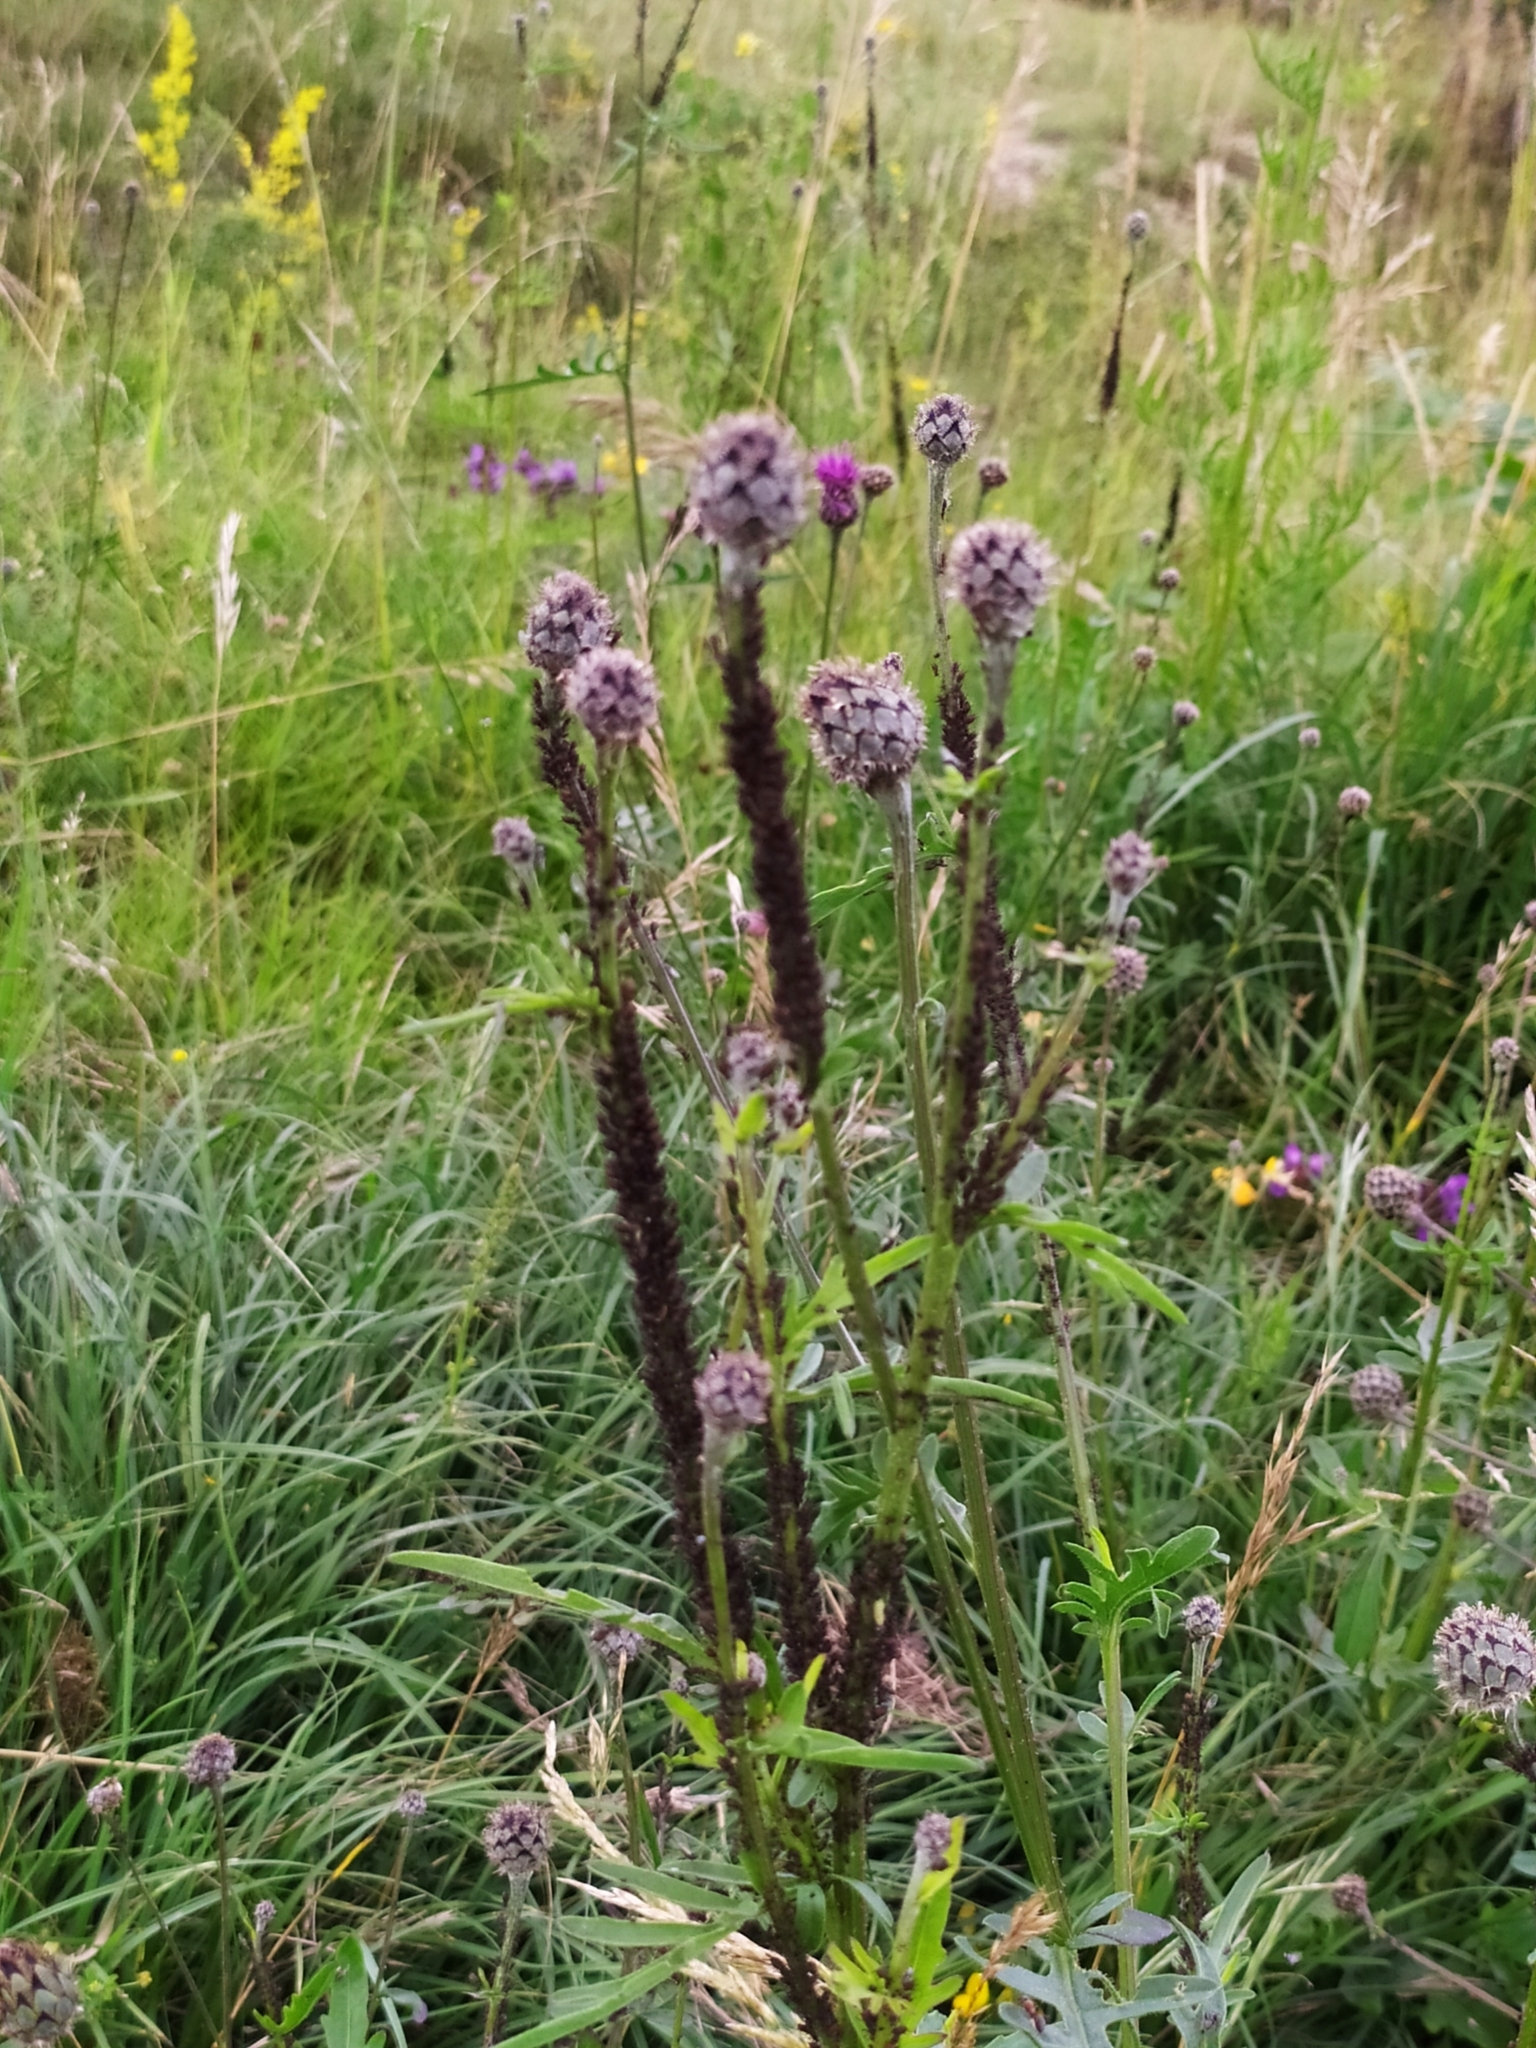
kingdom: Plantae
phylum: Tracheophyta
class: Magnoliopsida
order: Asterales
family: Asteraceae
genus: Centaurea
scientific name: Centaurea scabiosa
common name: Greater knapweed
